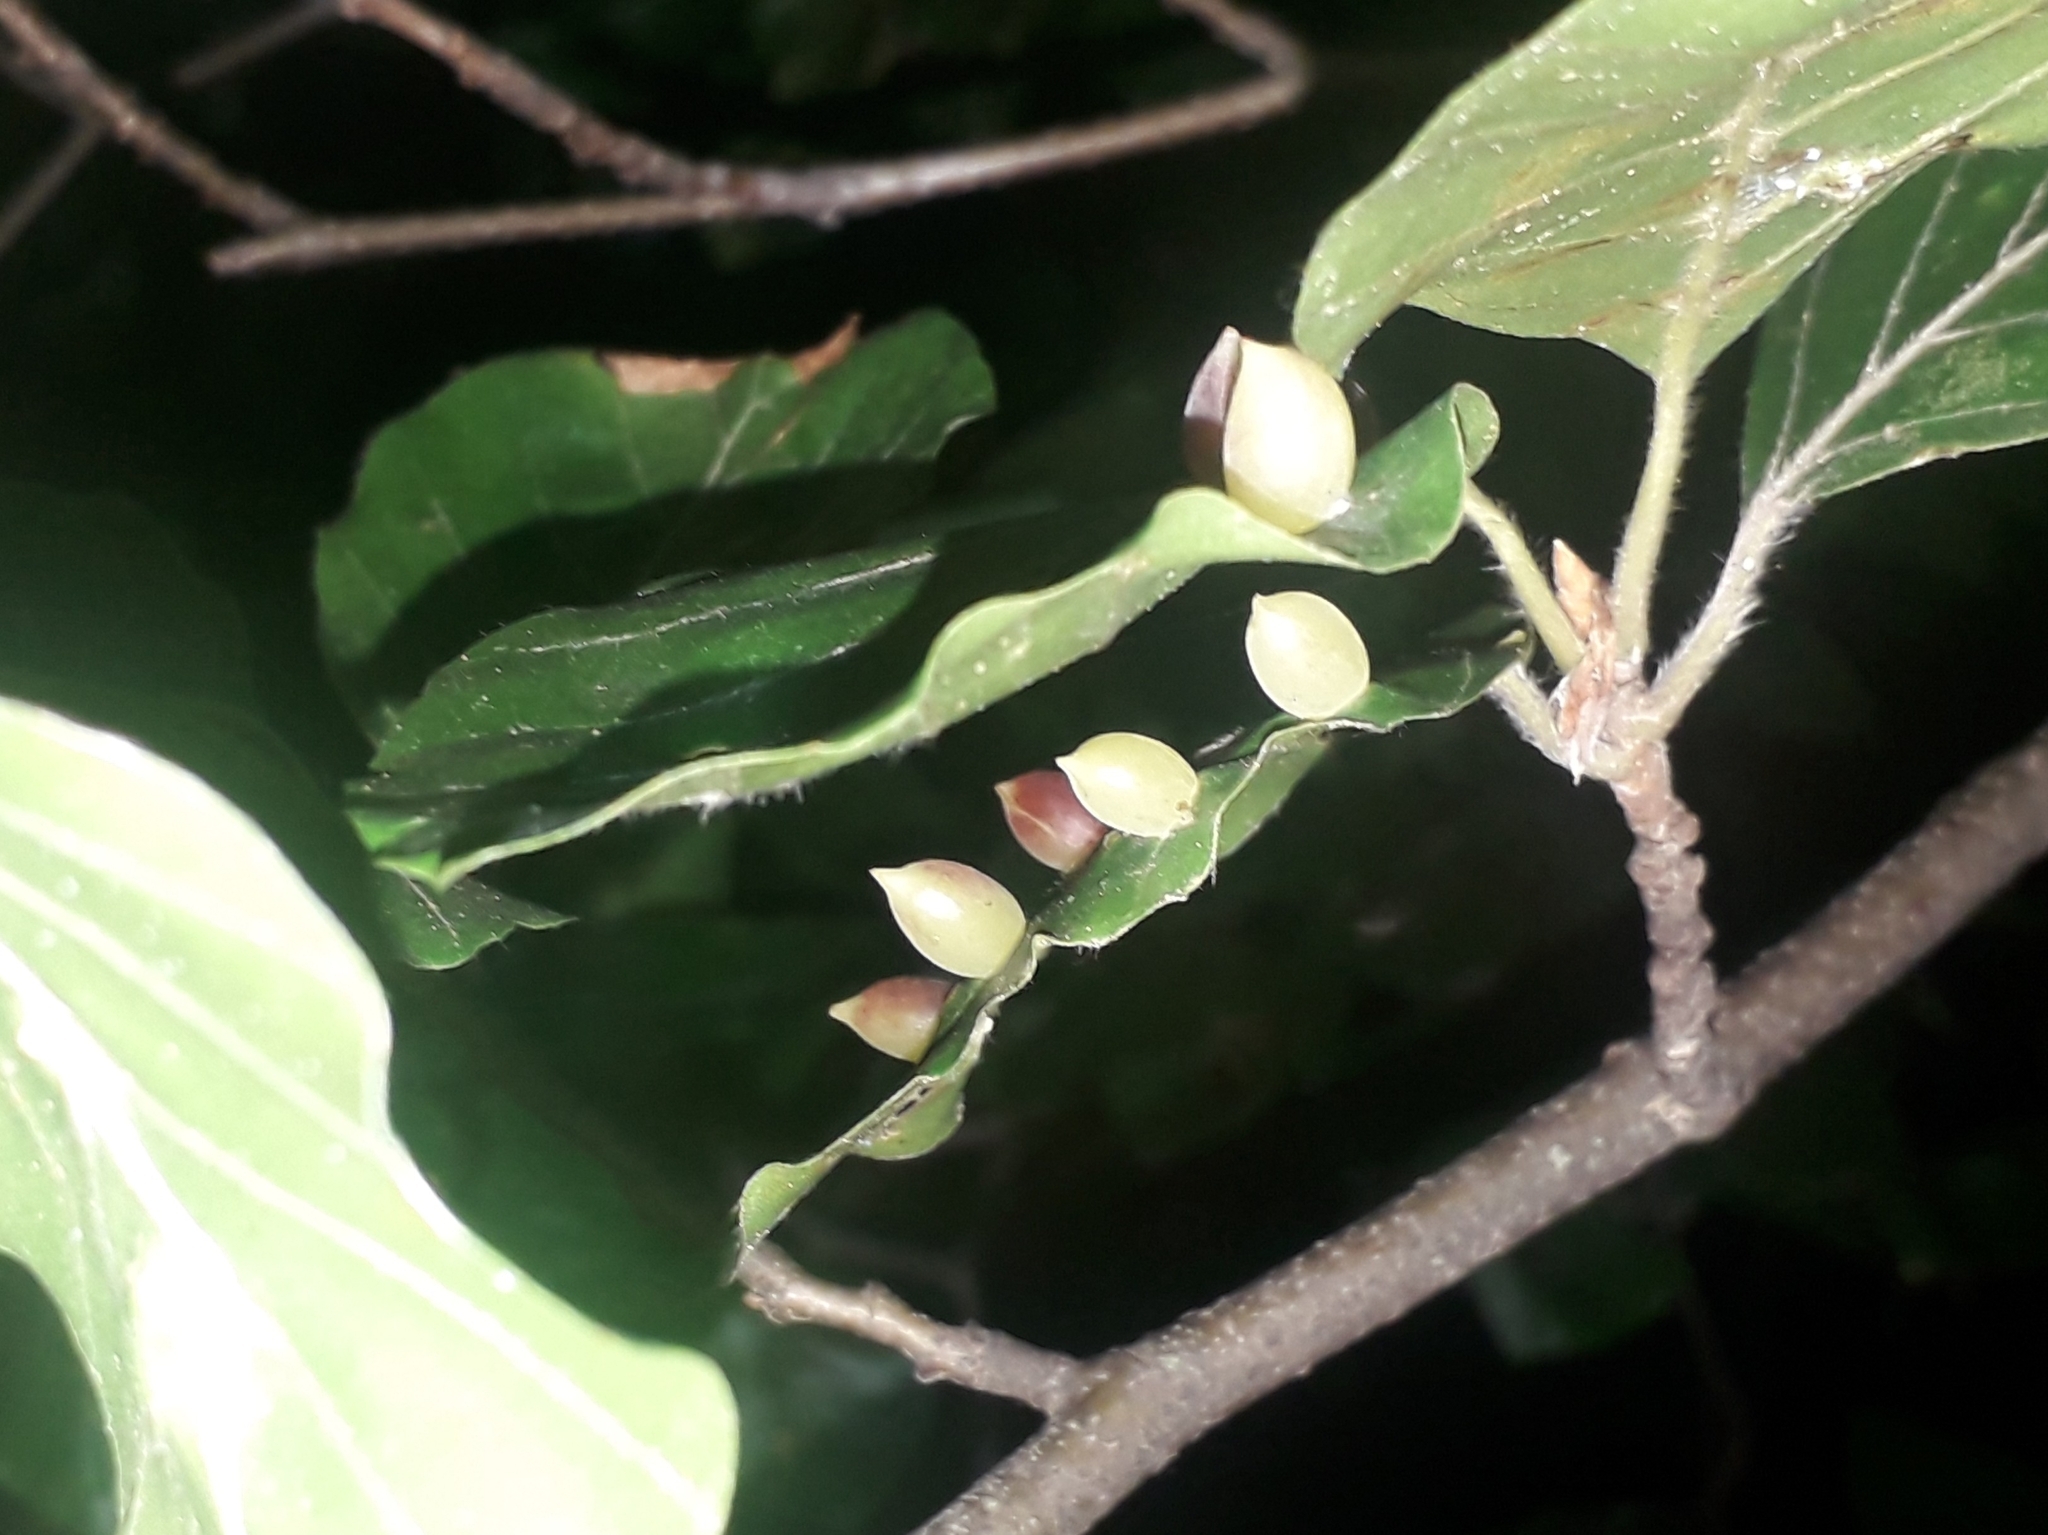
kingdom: Animalia
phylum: Arthropoda
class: Insecta
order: Diptera
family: Cecidomyiidae
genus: Mikiola
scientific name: Mikiola fagi
